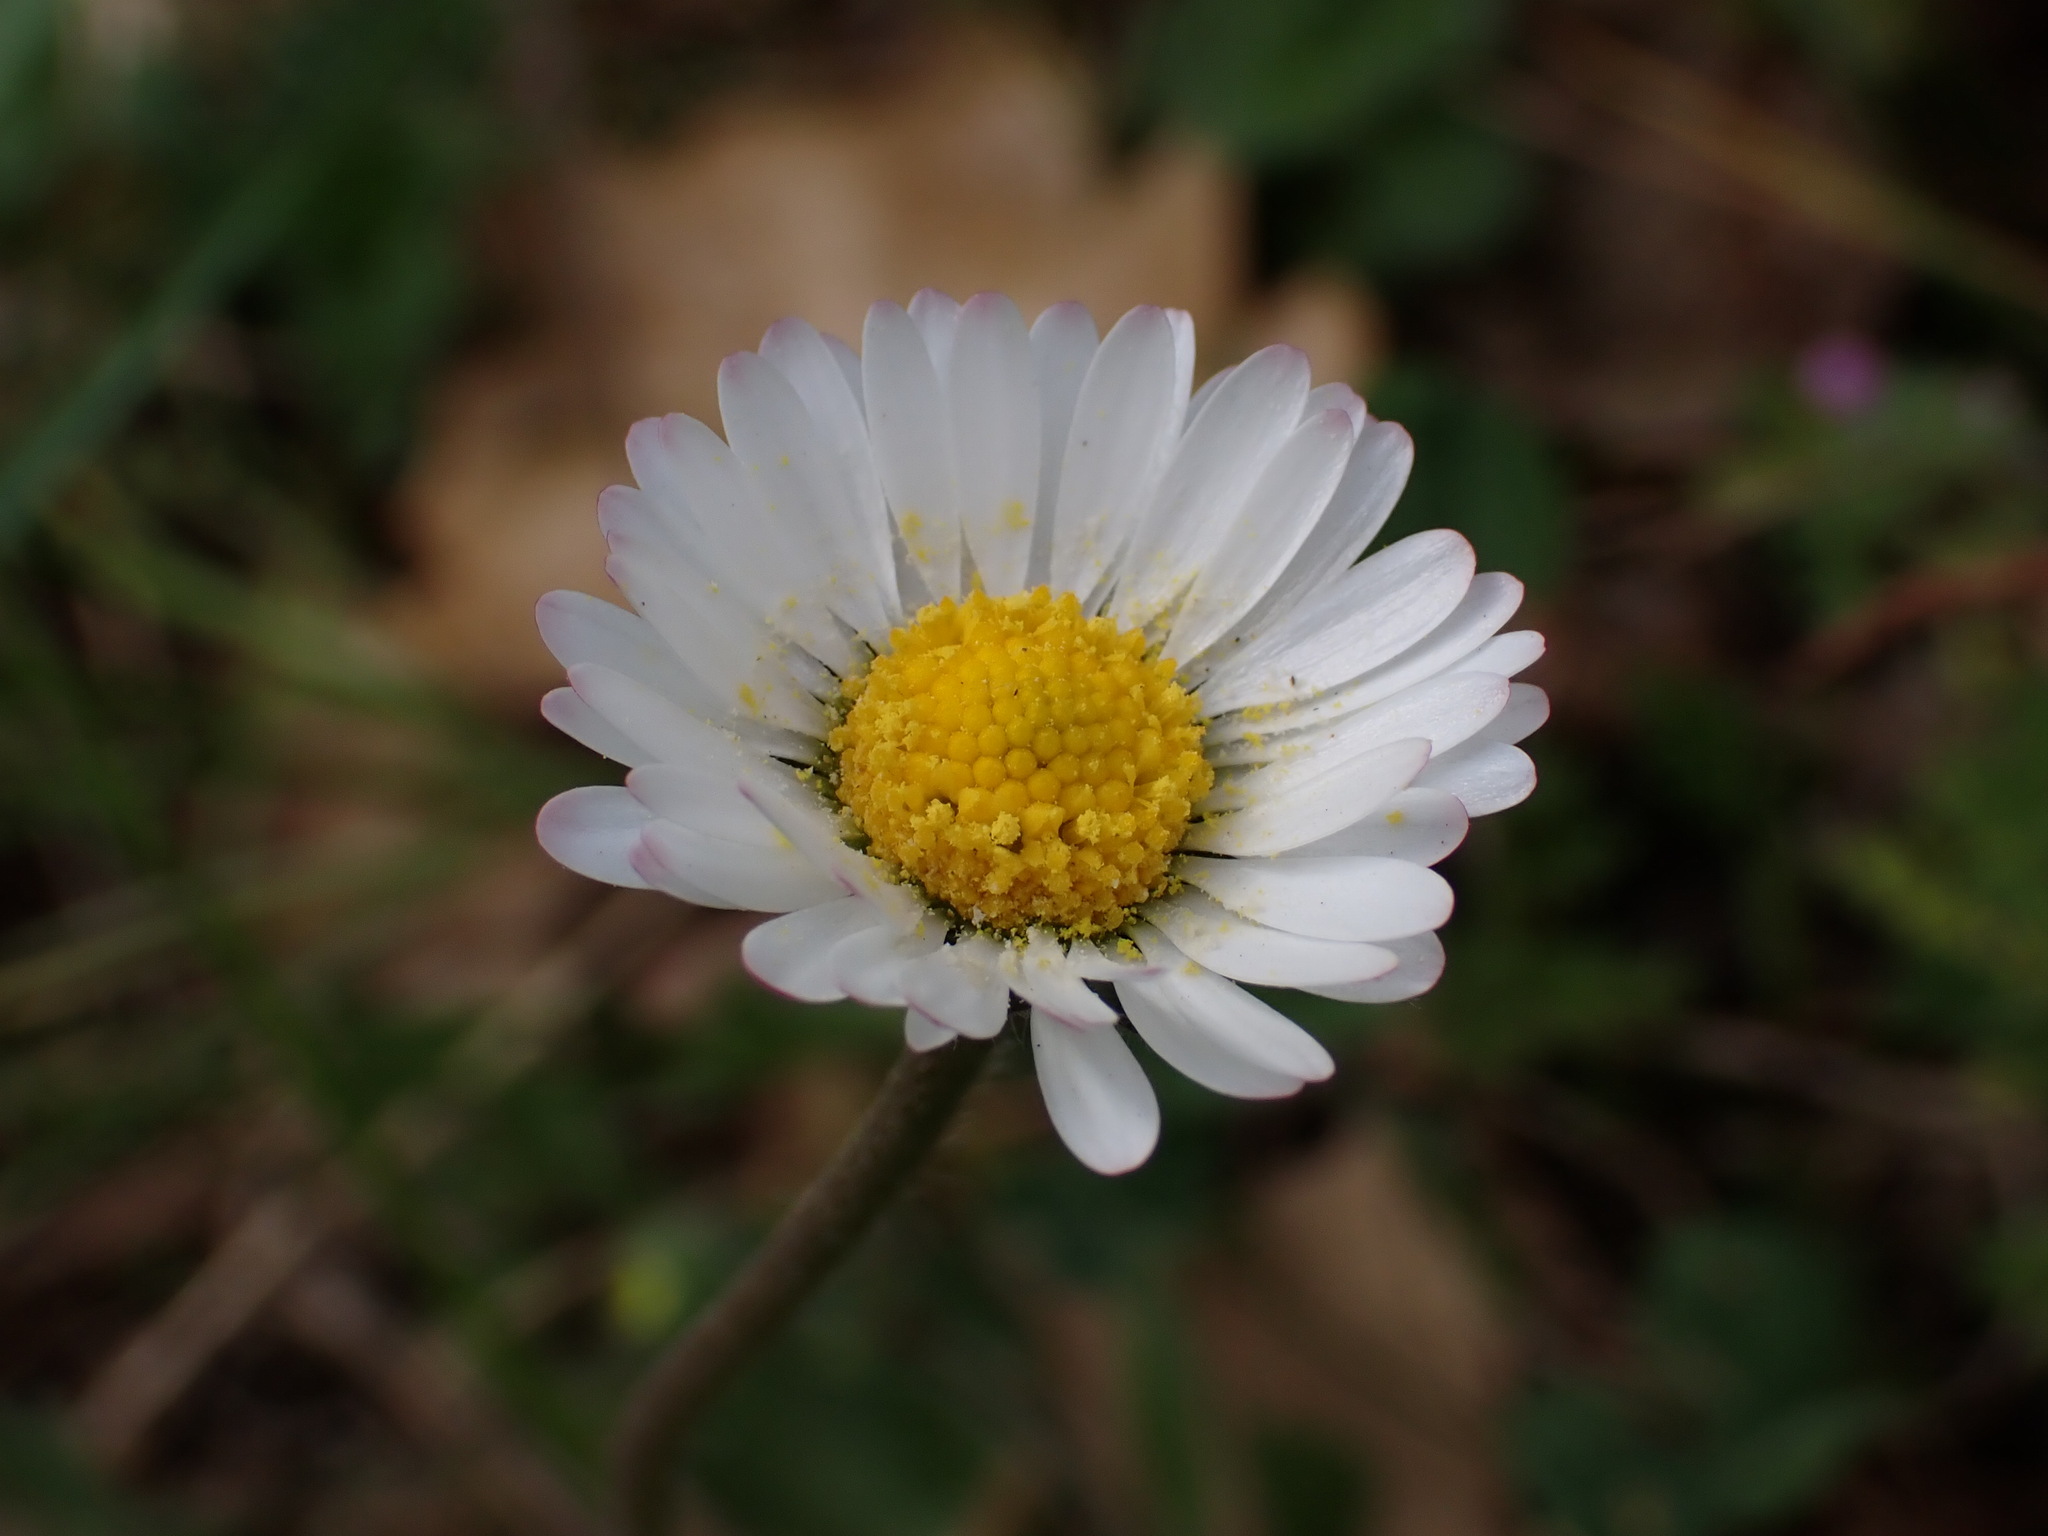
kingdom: Plantae
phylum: Tracheophyta
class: Magnoliopsida
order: Asterales
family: Asteraceae
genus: Bellis
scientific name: Bellis perennis
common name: Lawndaisy
